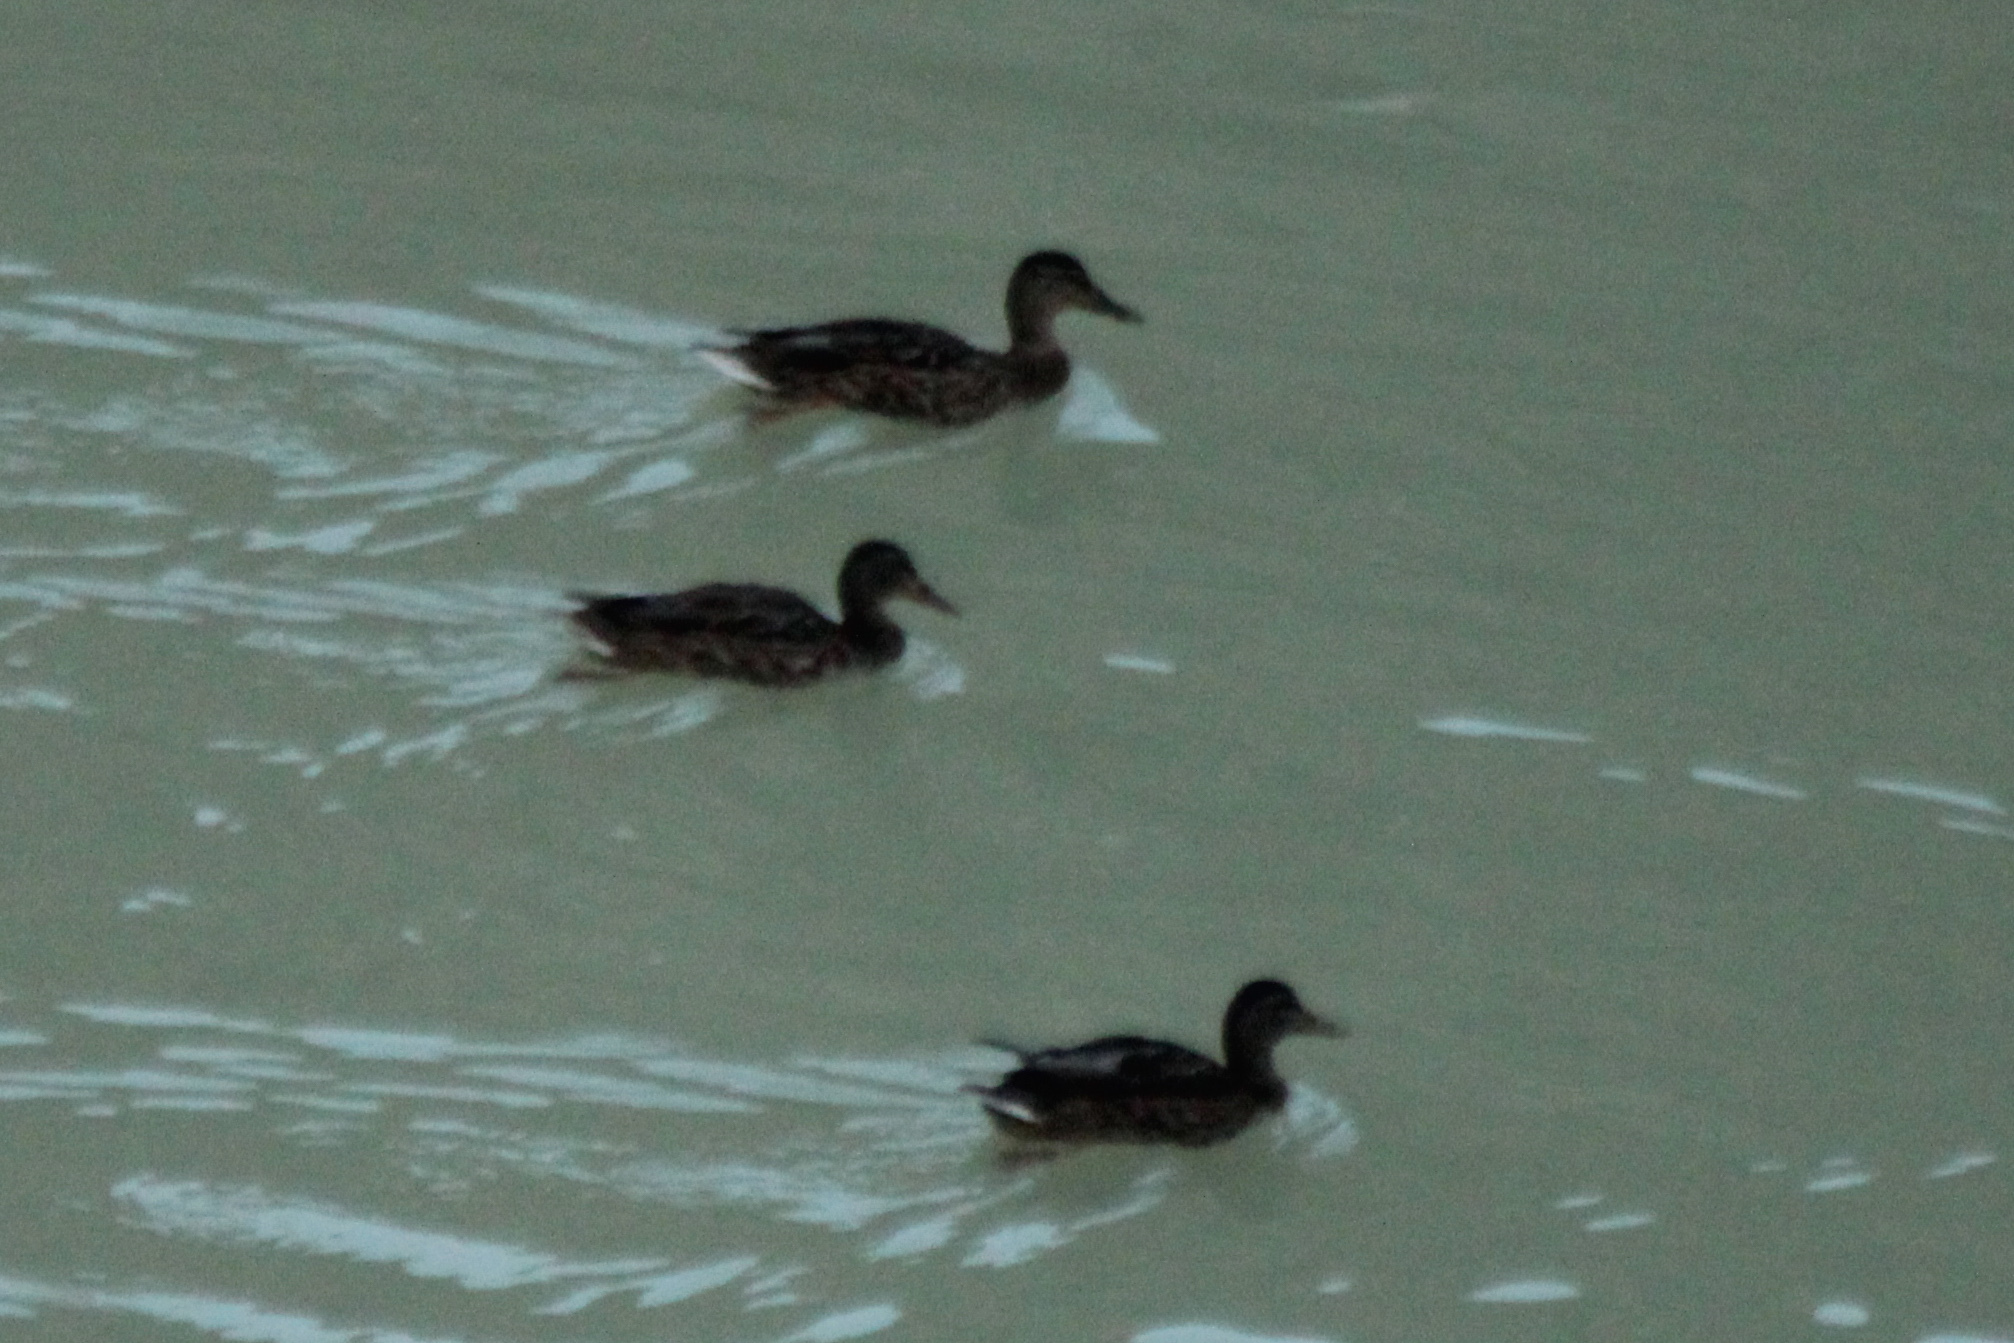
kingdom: Animalia
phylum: Chordata
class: Aves
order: Anseriformes
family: Anatidae
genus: Anas
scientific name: Anas platyrhynchos
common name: Mallard
